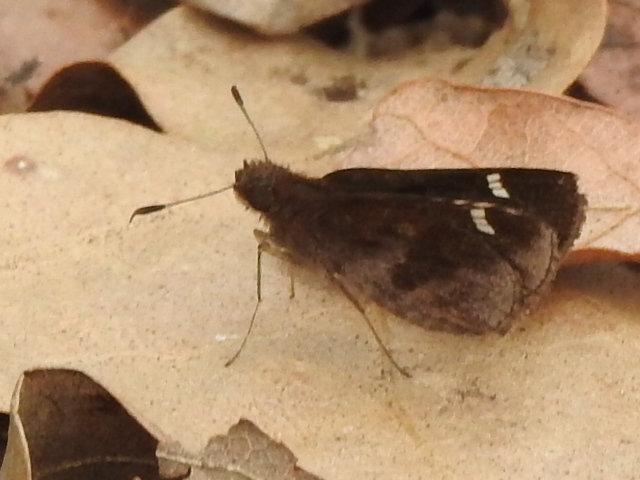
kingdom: Animalia
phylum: Arthropoda
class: Insecta
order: Lepidoptera
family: Hesperiidae
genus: Lerema
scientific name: Lerema accius
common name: Clouded skipper
